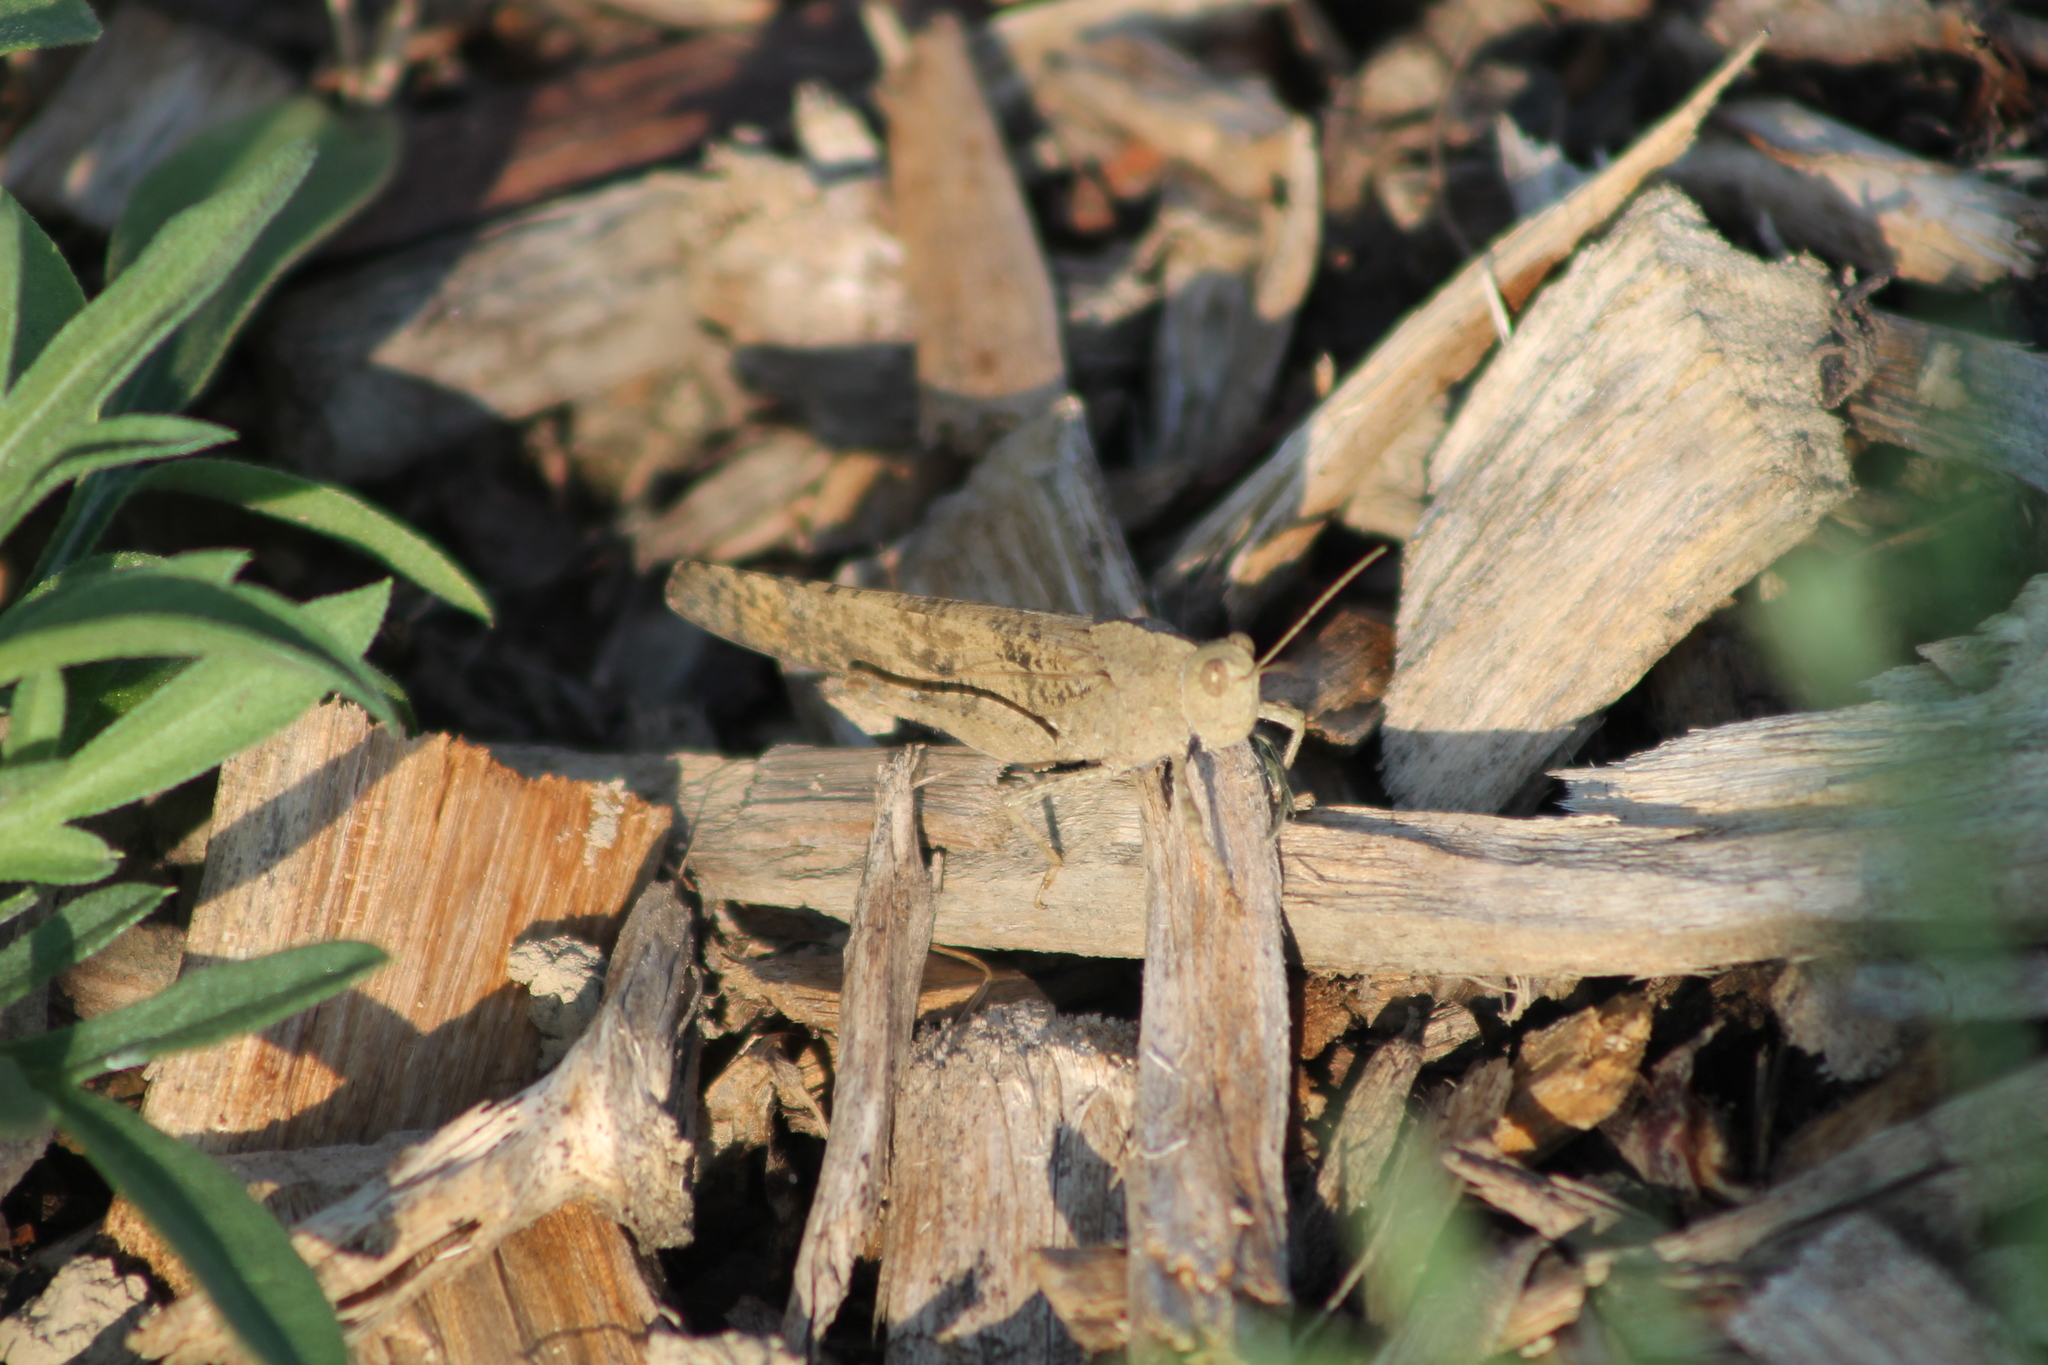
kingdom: Animalia
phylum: Arthropoda
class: Insecta
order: Orthoptera
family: Acrididae
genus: Dissosteira
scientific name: Dissosteira carolina
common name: Carolina grasshopper
